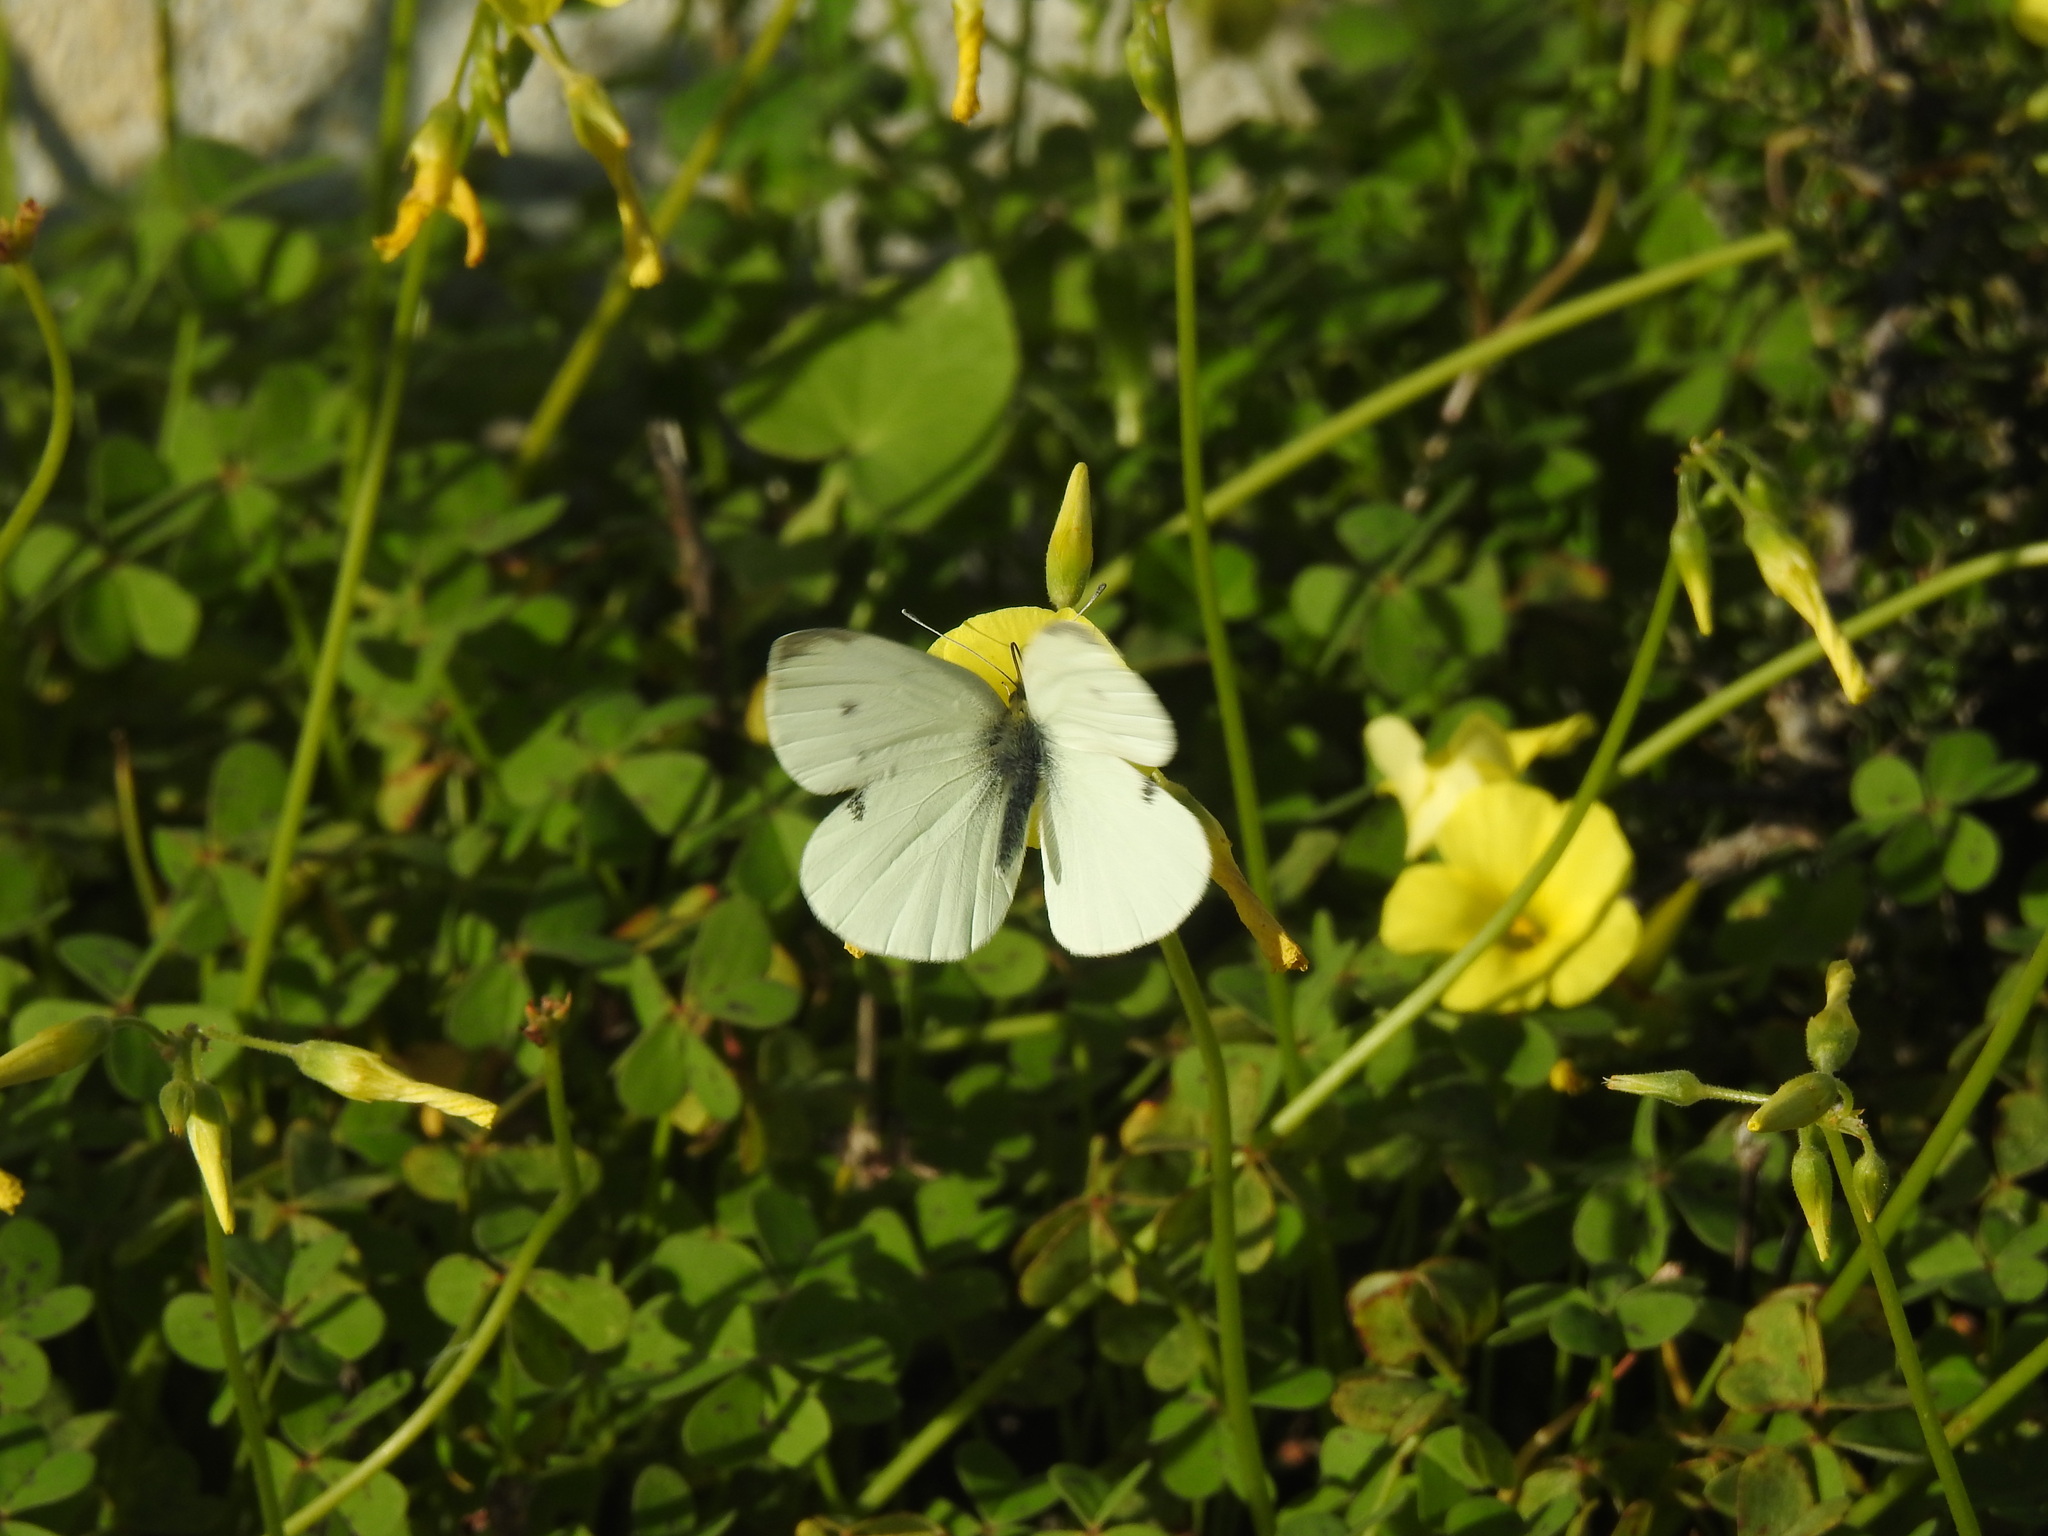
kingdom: Animalia
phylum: Arthropoda
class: Insecta
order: Lepidoptera
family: Pieridae
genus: Pieris
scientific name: Pieris rapae
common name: Small white
